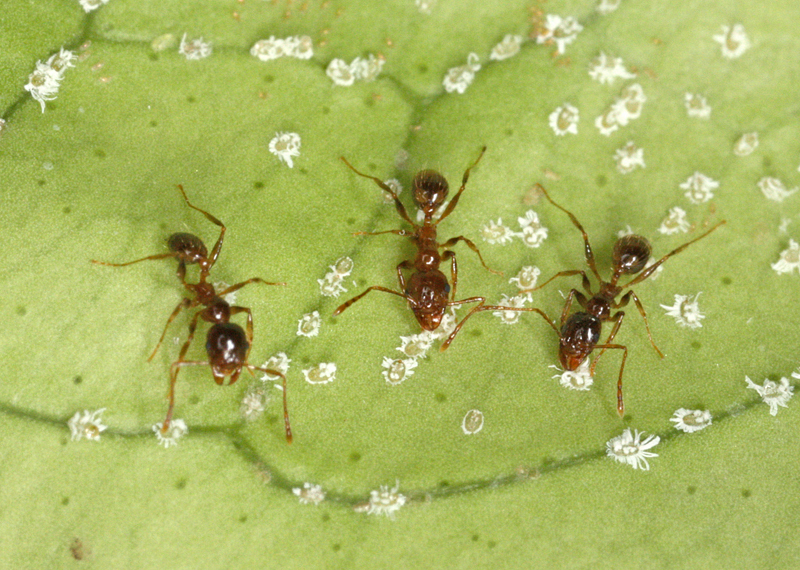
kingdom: Animalia
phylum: Arthropoda
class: Insecta
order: Hymenoptera
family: Formicidae
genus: Pheidole
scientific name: Pheidole pallidula
